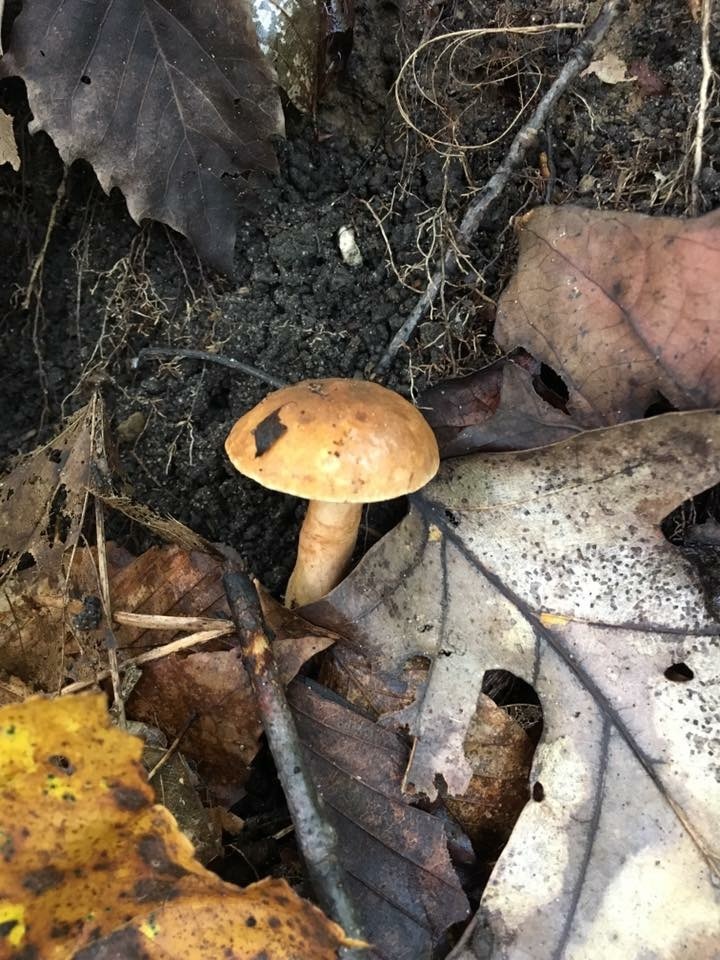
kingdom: Fungi
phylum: Basidiomycota
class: Agaricomycetes
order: Boletales
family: Gyroporaceae
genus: Gyroporus
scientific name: Gyroporus castaneus
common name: Chestnut bolete
